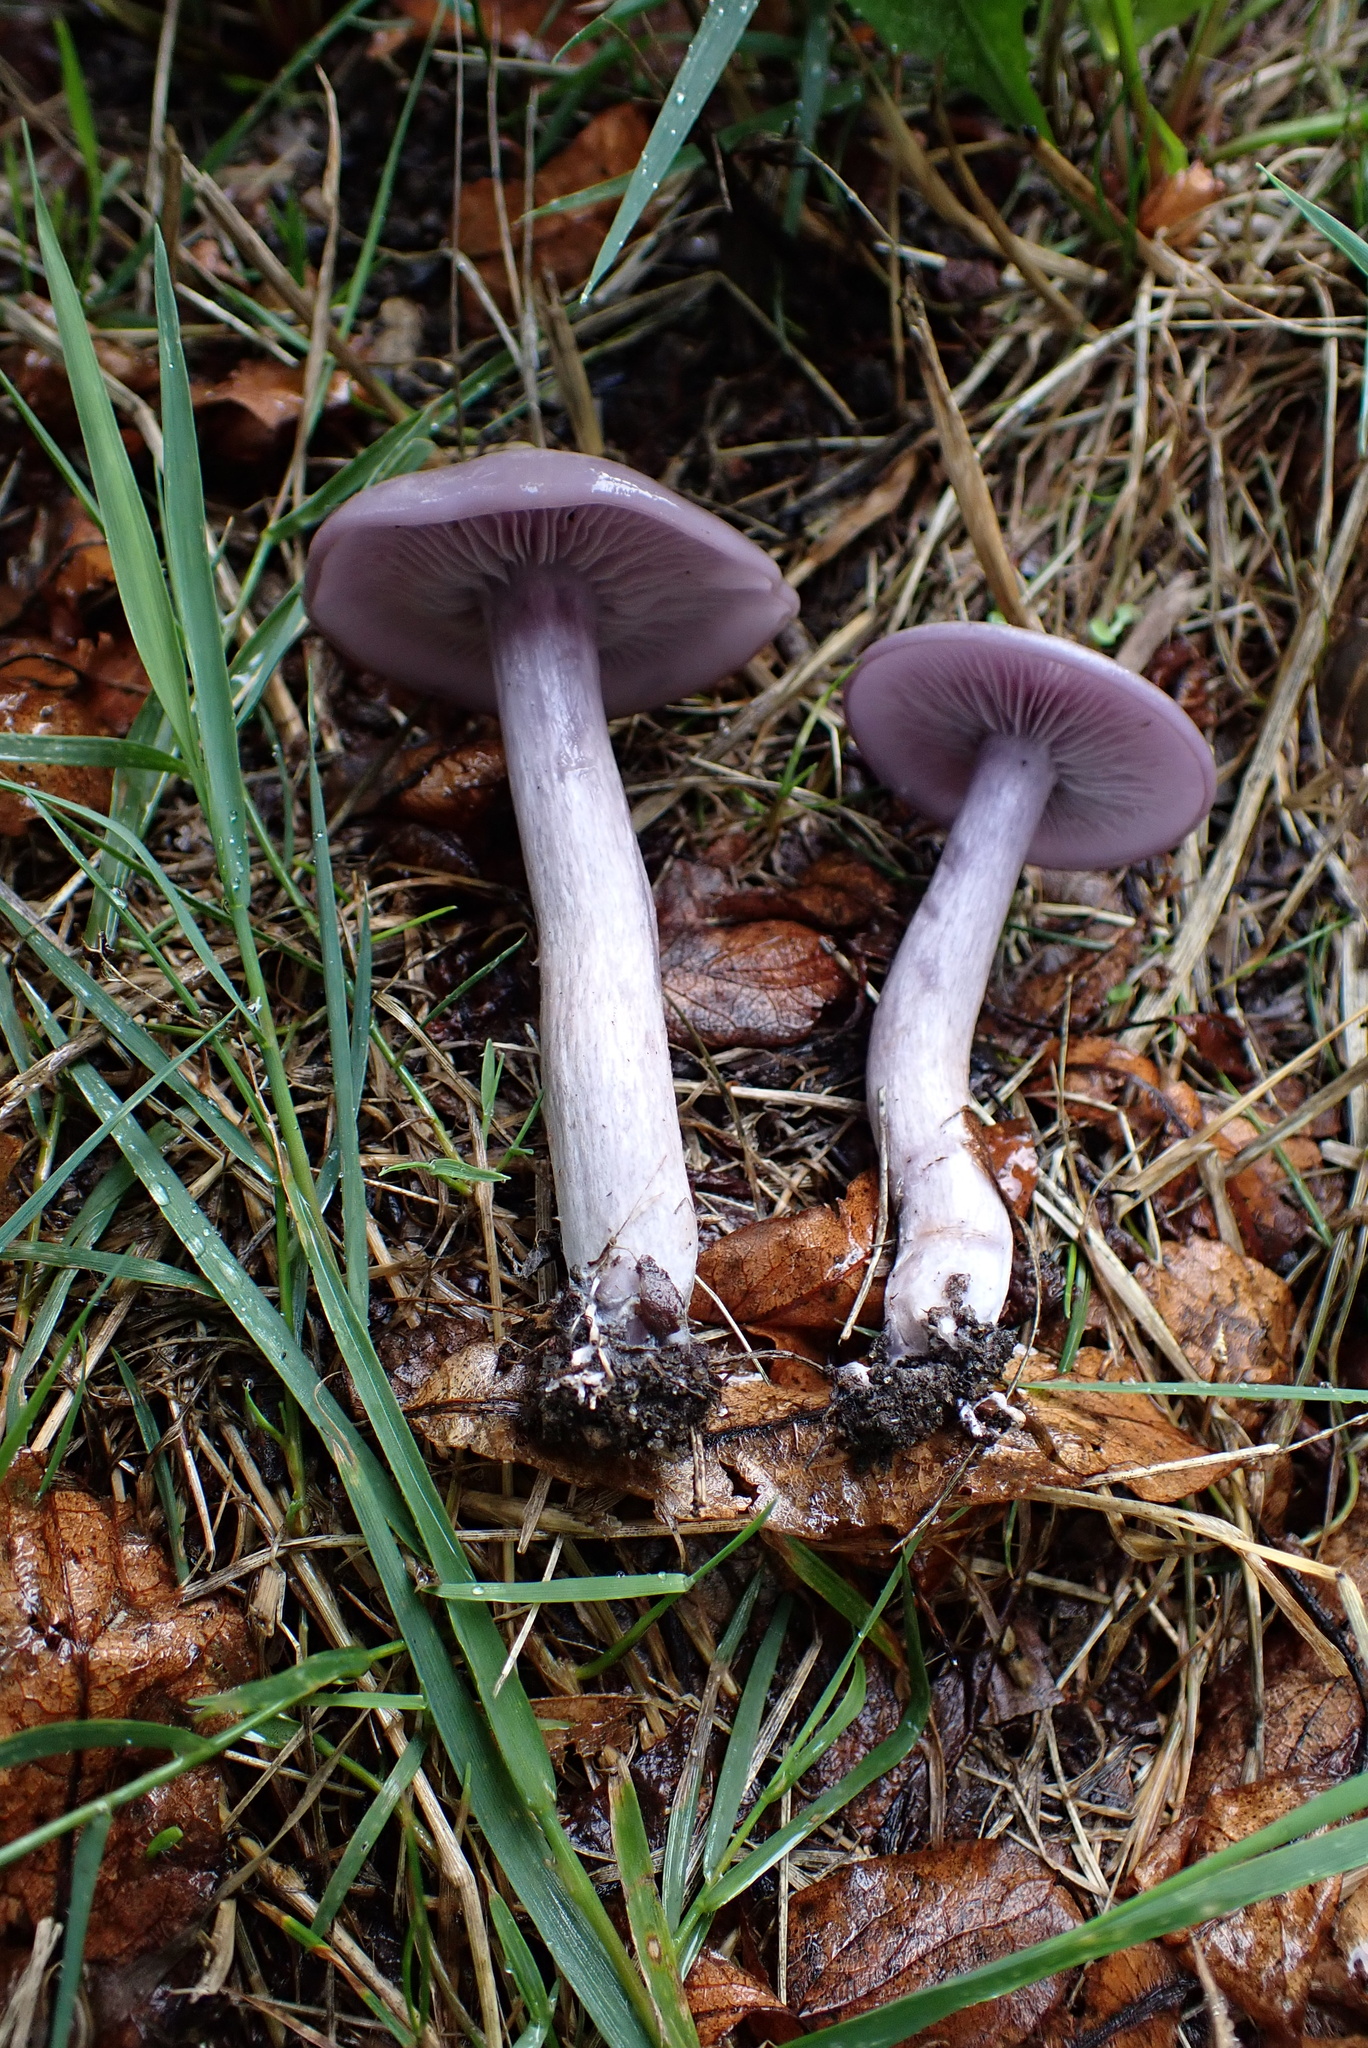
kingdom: Fungi
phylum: Basidiomycota
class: Agaricomycetes
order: Agaricales
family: Tricholomataceae
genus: Collybia
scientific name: Collybia
